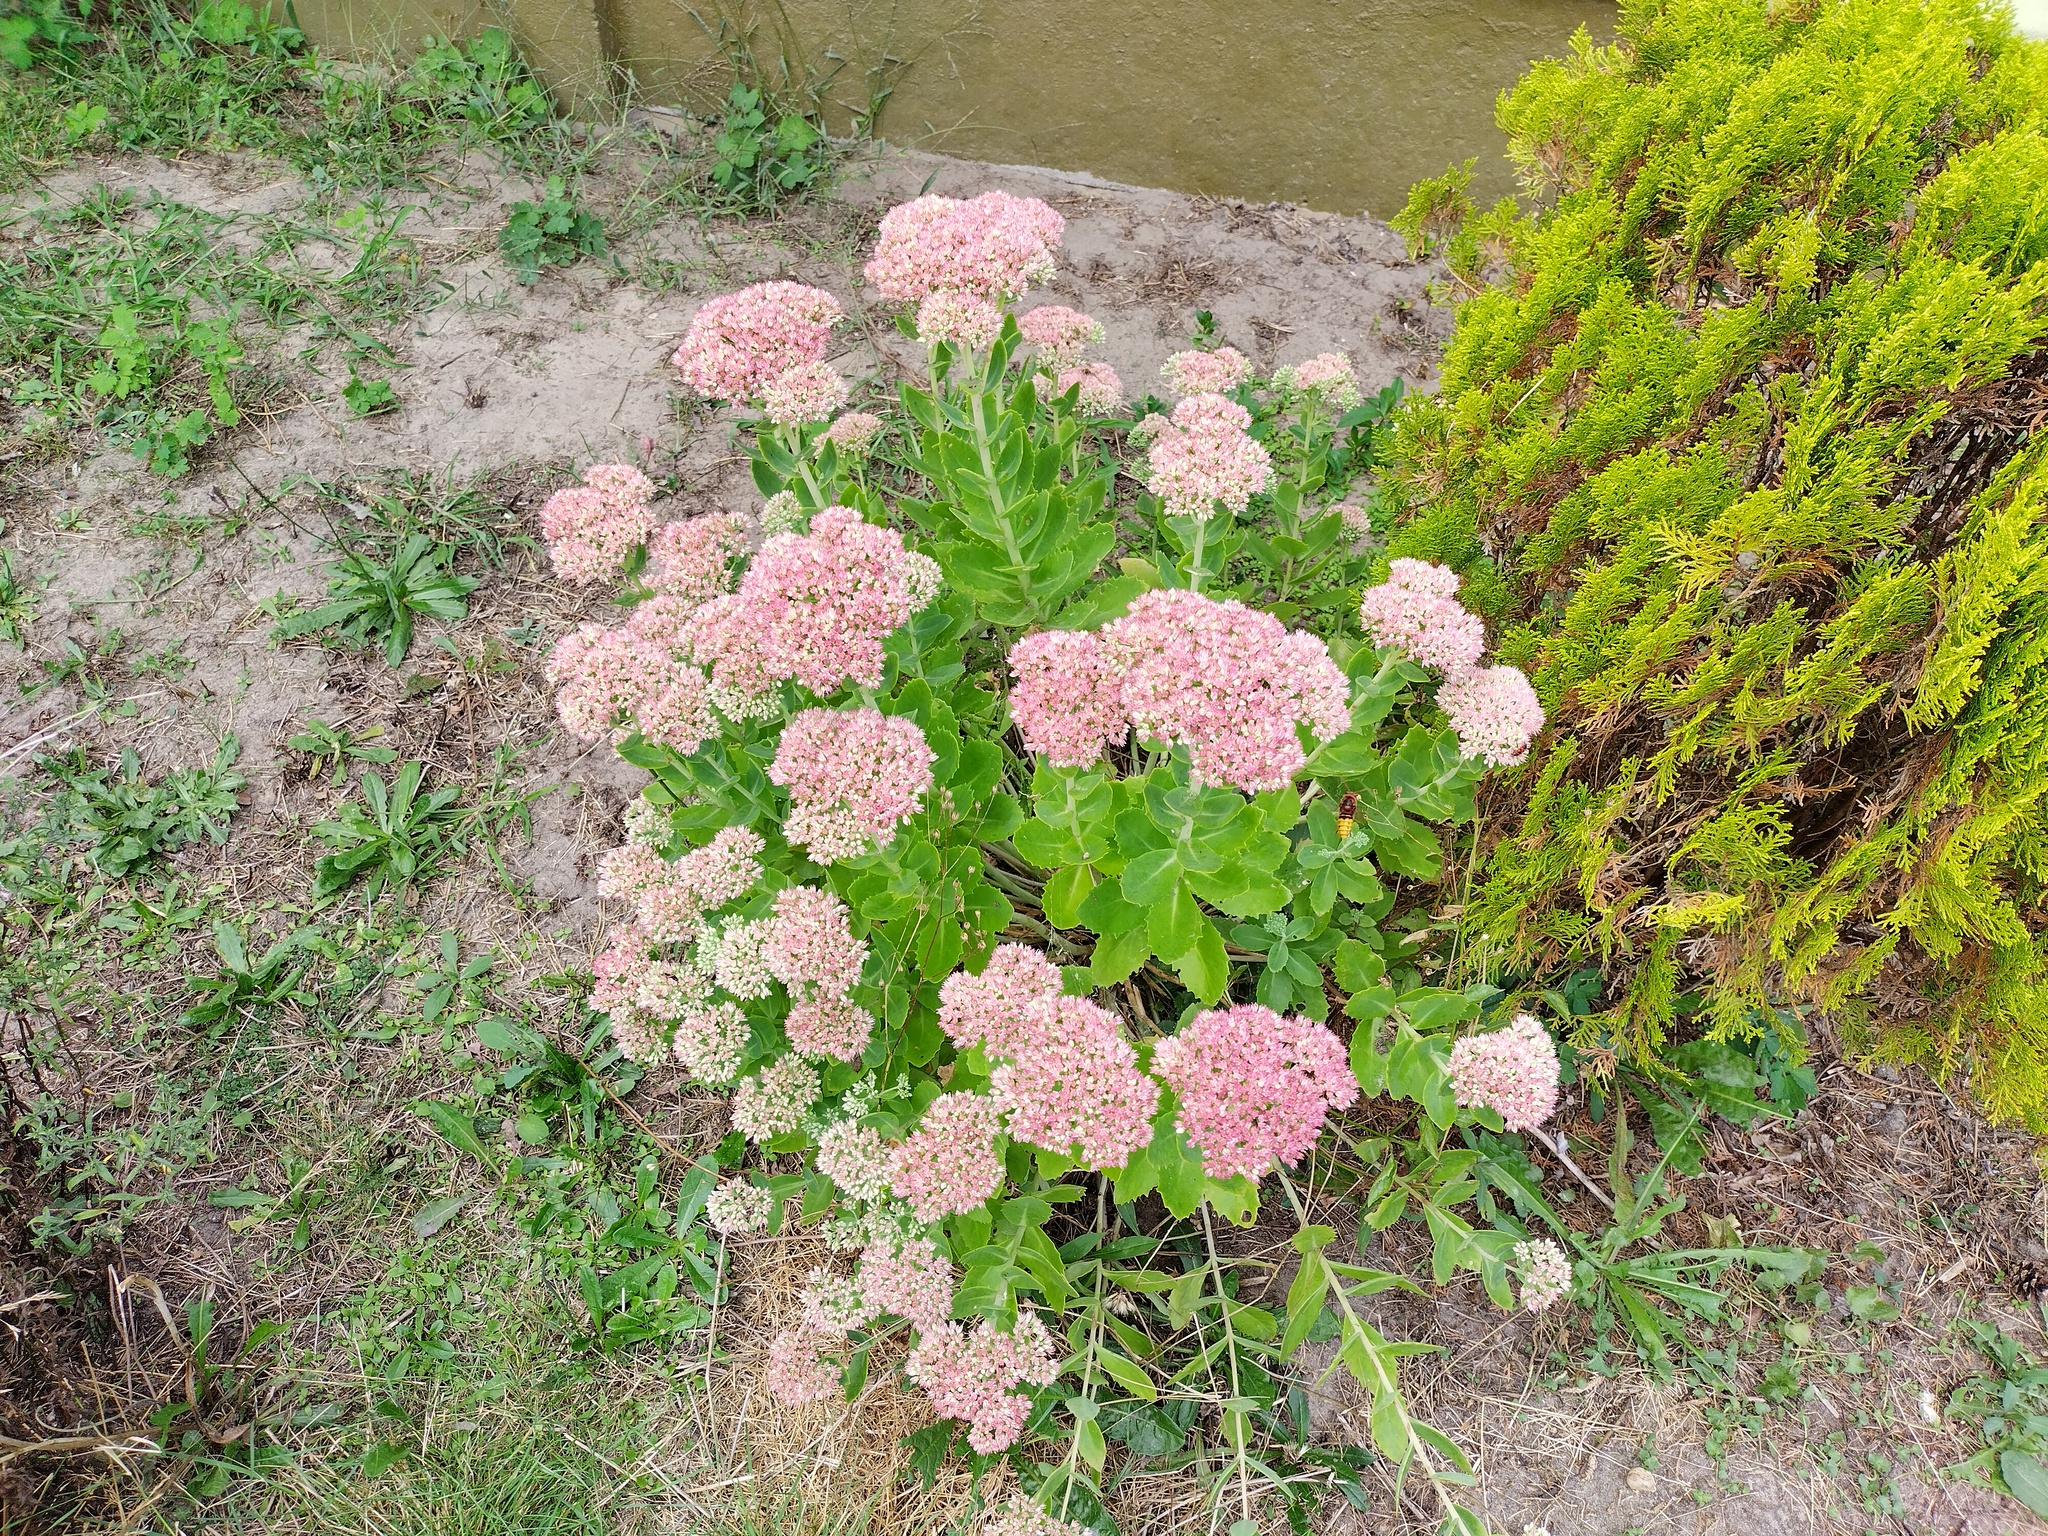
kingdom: Animalia
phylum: Arthropoda
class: Insecta
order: Hymenoptera
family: Vespidae
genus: Vespa
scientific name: Vespa crabro
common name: Hornet
